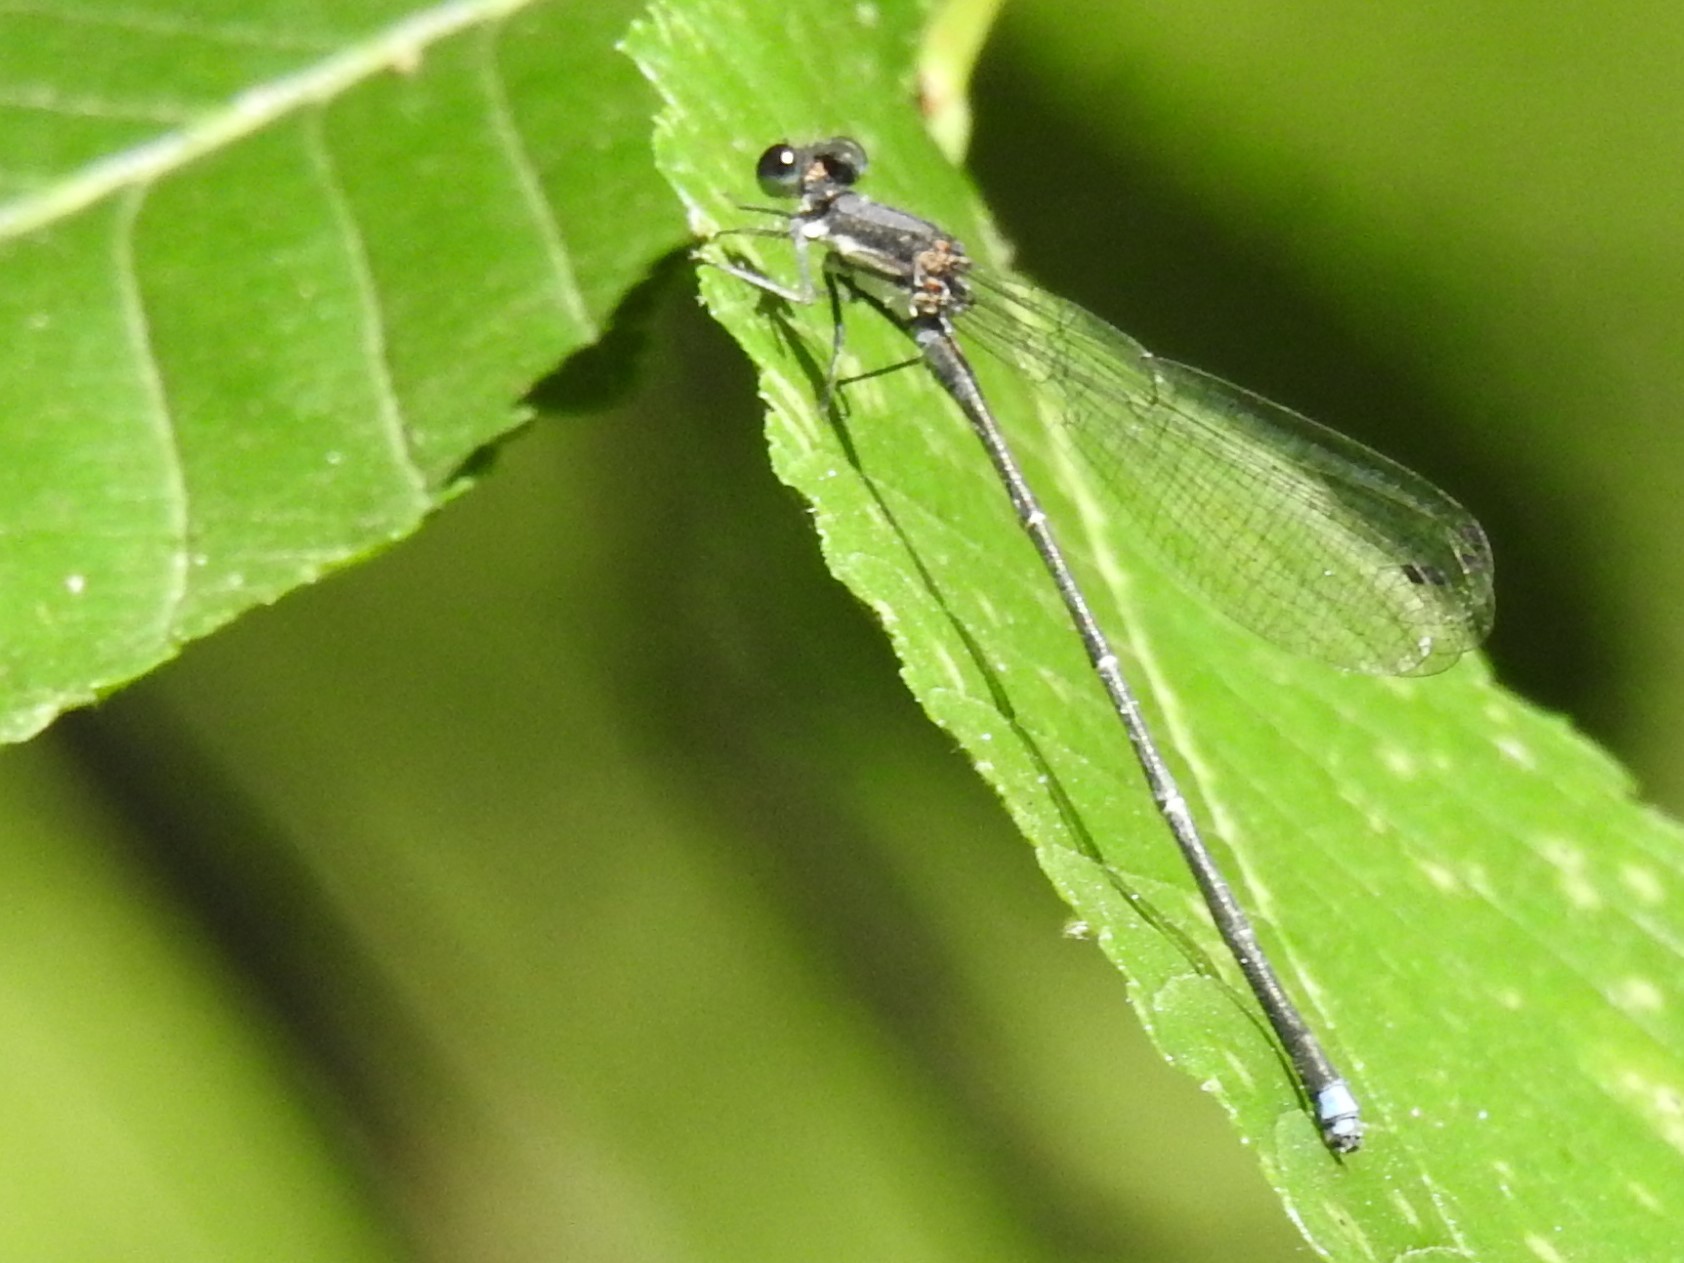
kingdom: Animalia
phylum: Arthropoda
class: Insecta
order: Odonata
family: Coenagrionidae
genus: Argia
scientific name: Argia tibialis
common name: Blue-tipped dancer
